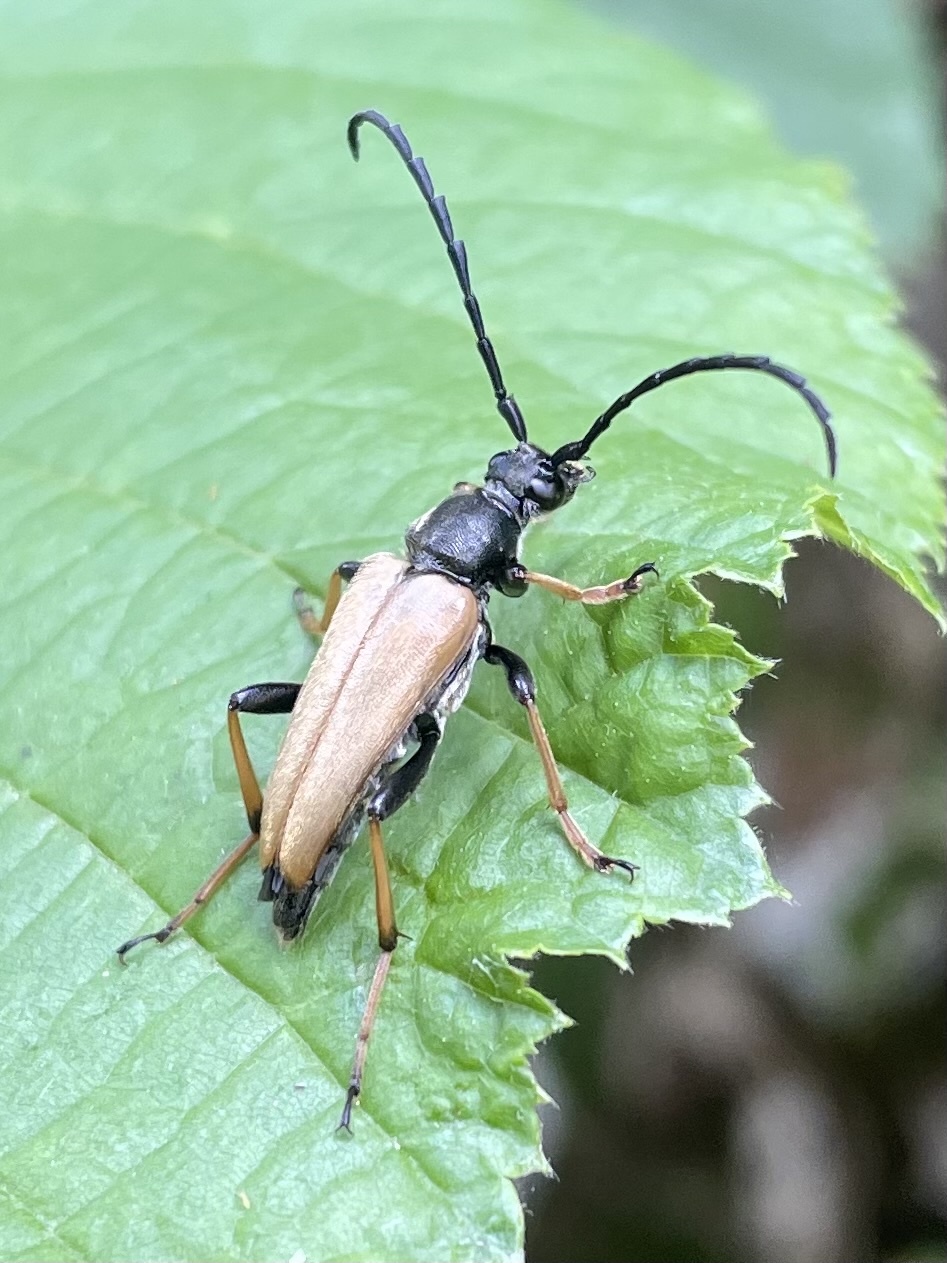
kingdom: Animalia
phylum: Arthropoda
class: Insecta
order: Coleoptera
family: Cerambycidae
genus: Stictoleptura
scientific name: Stictoleptura rubra
